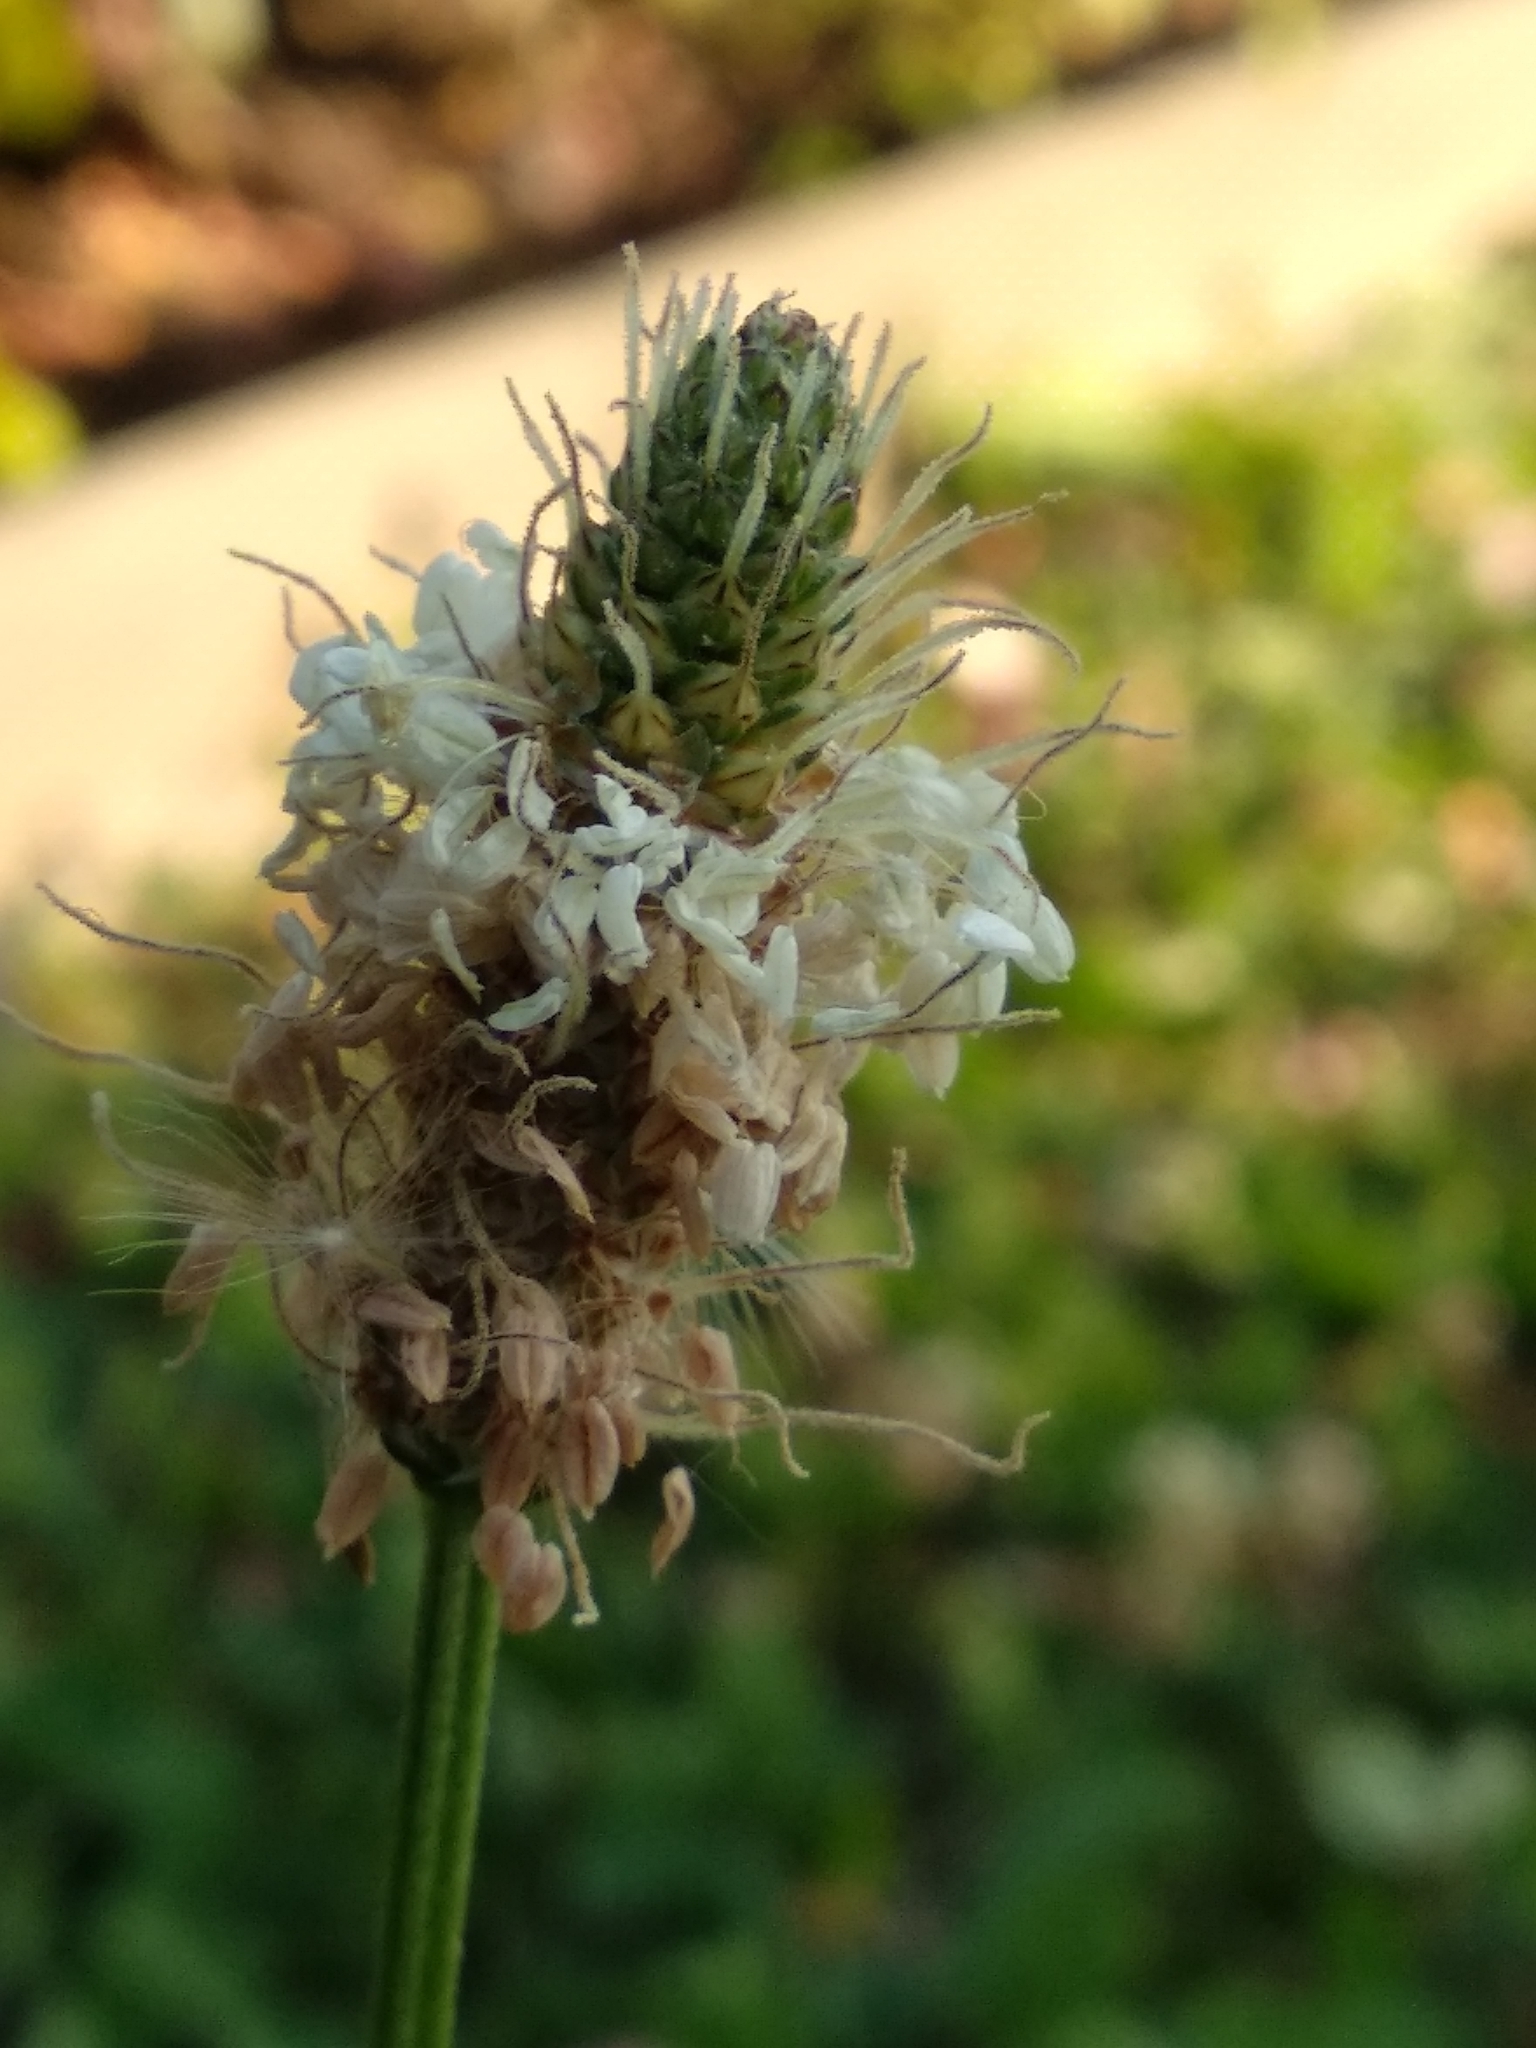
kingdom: Plantae
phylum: Tracheophyta
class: Magnoliopsida
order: Lamiales
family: Plantaginaceae
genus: Plantago
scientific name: Plantago lanceolata
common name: Ribwort plantain
